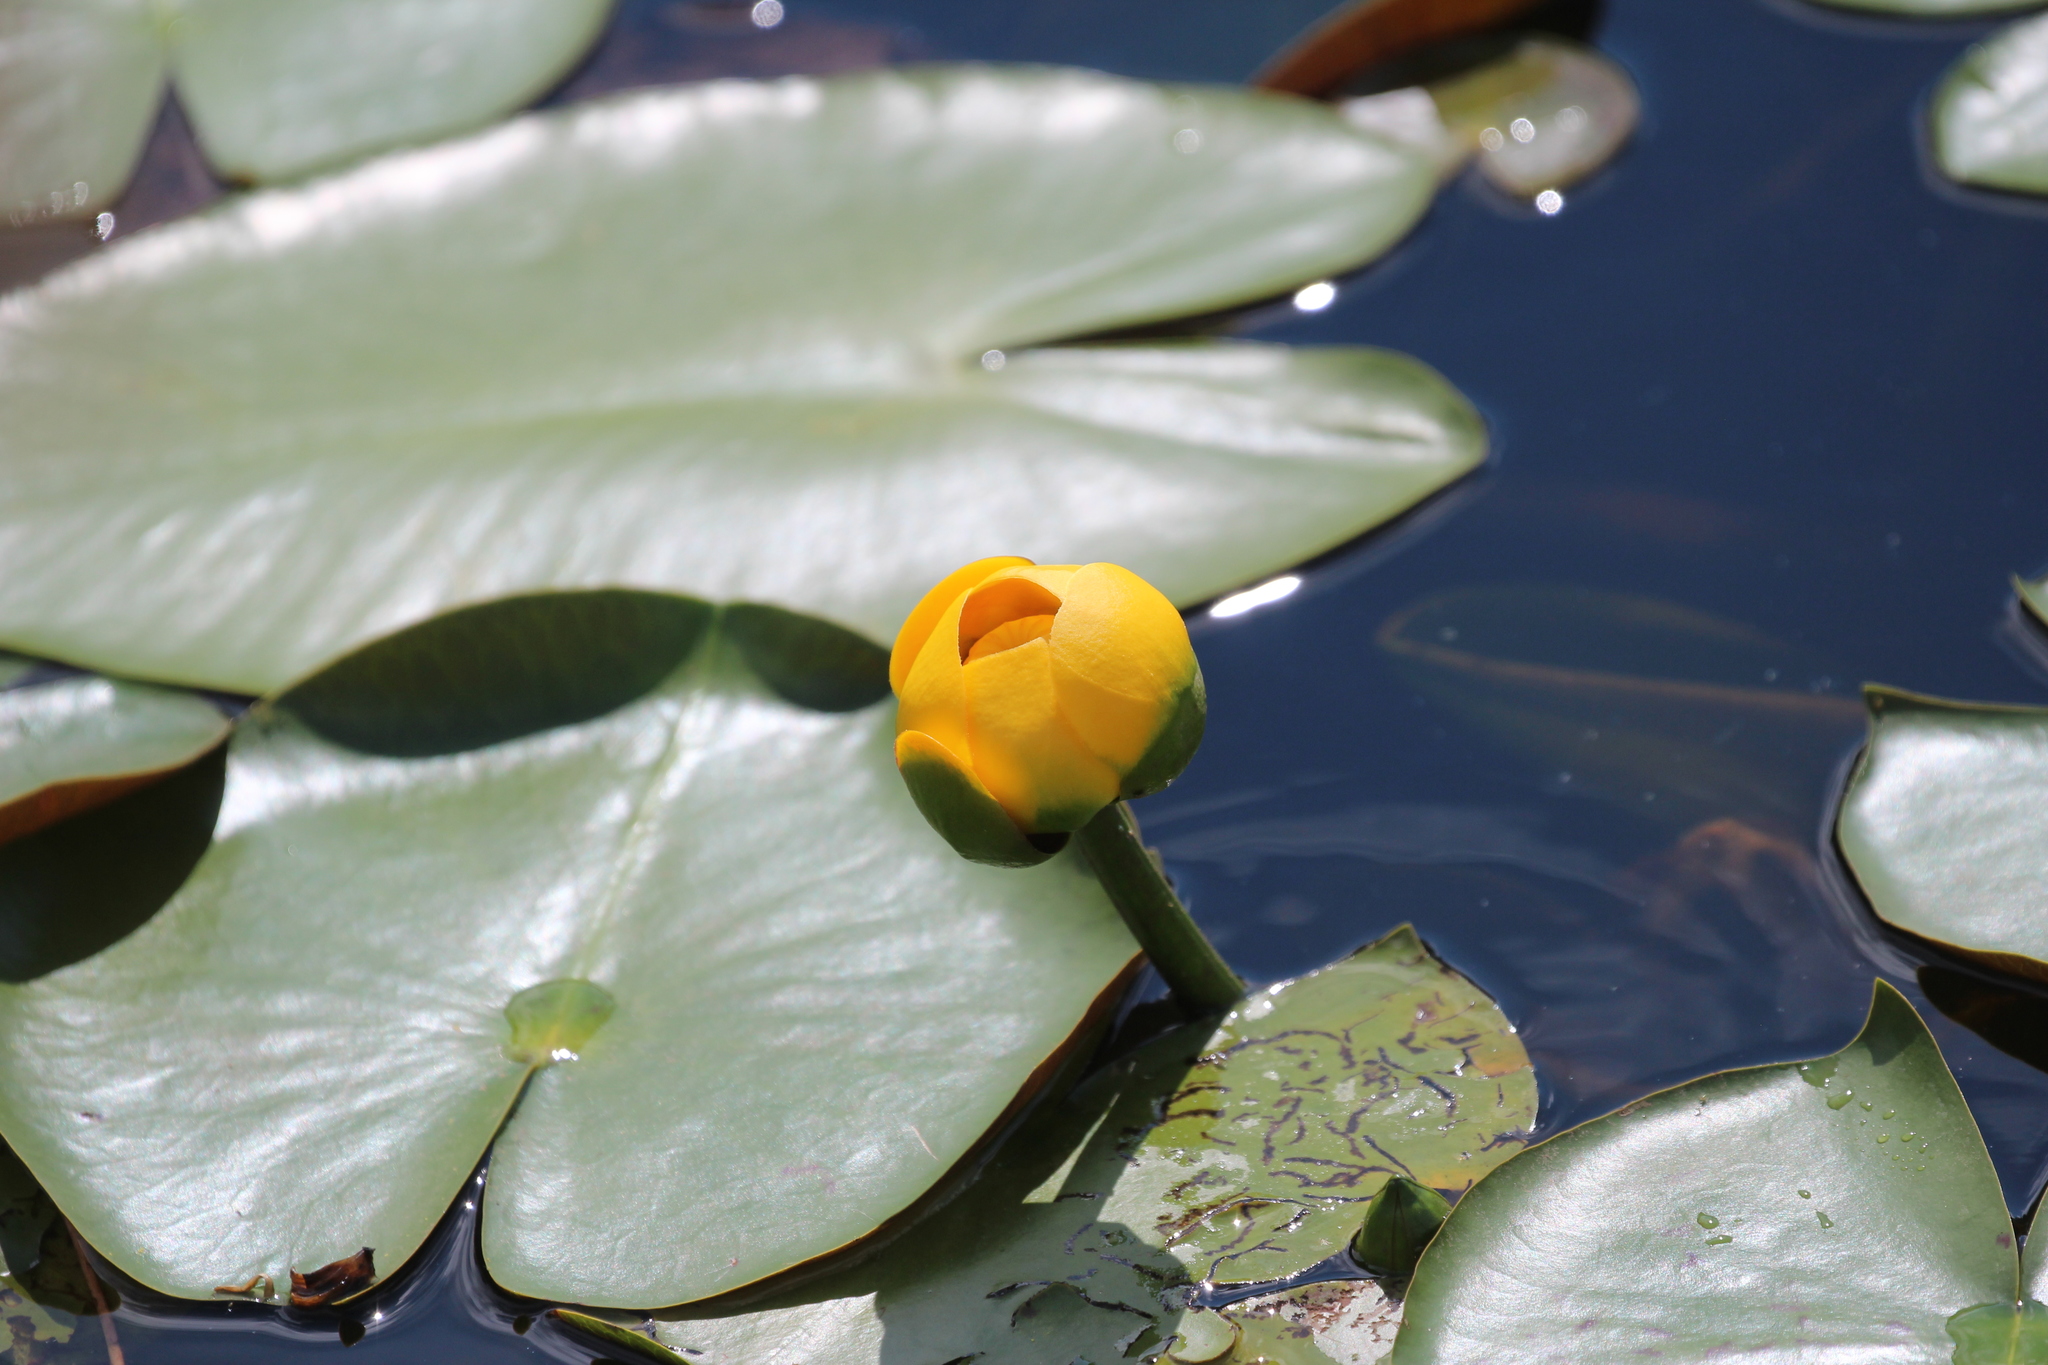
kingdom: Plantae
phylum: Tracheophyta
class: Magnoliopsida
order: Nymphaeales
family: Nymphaeaceae
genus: Nuphar
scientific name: Nuphar variegata
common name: Beaver-root
